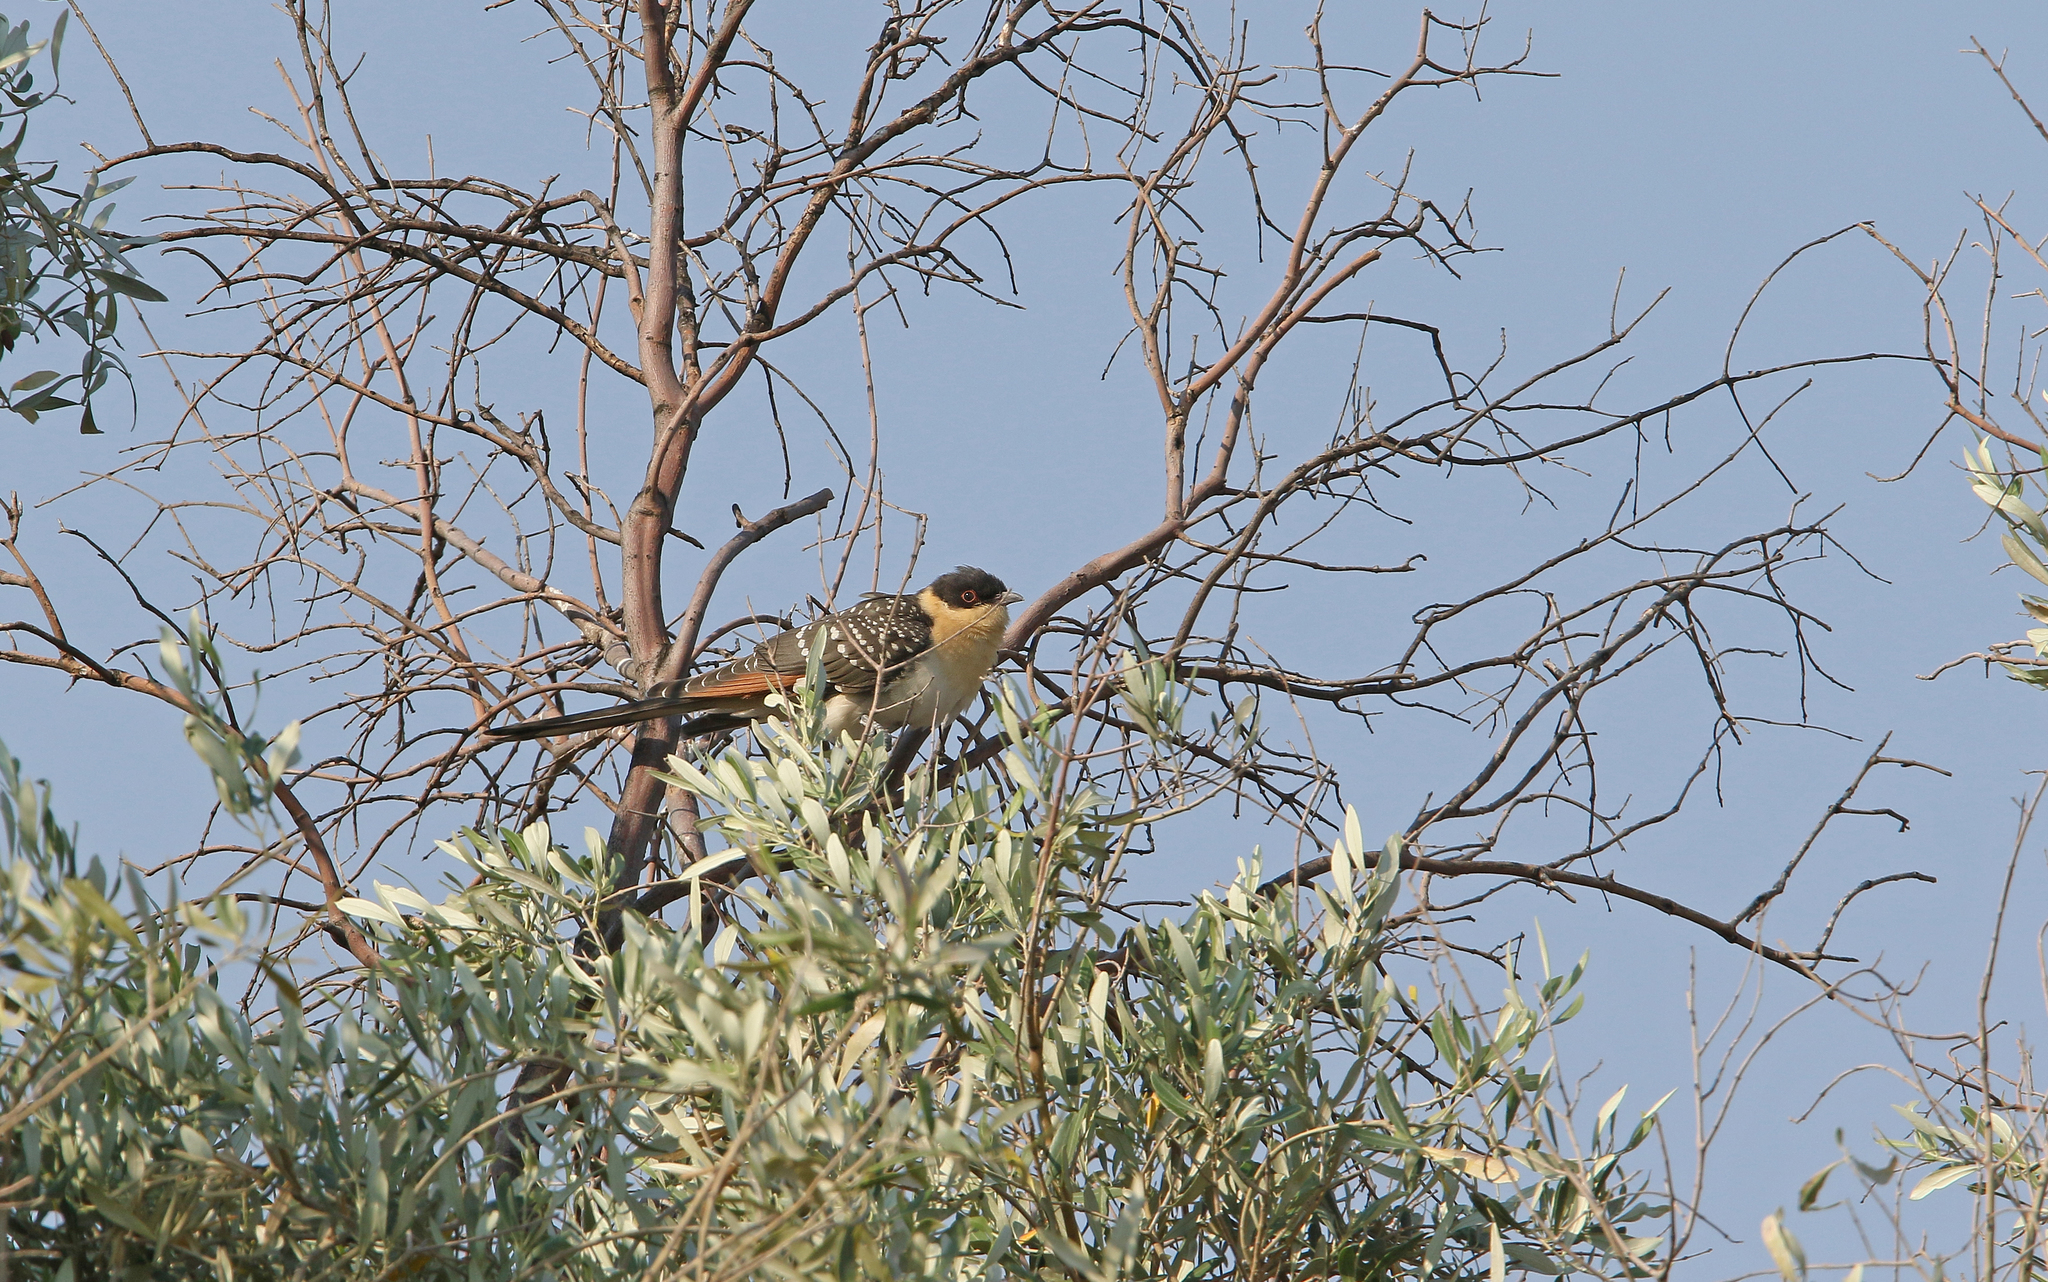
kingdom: Animalia
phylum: Chordata
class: Aves
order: Cuculiformes
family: Cuculidae
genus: Clamator
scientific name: Clamator glandarius
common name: Great spotted cuckoo
